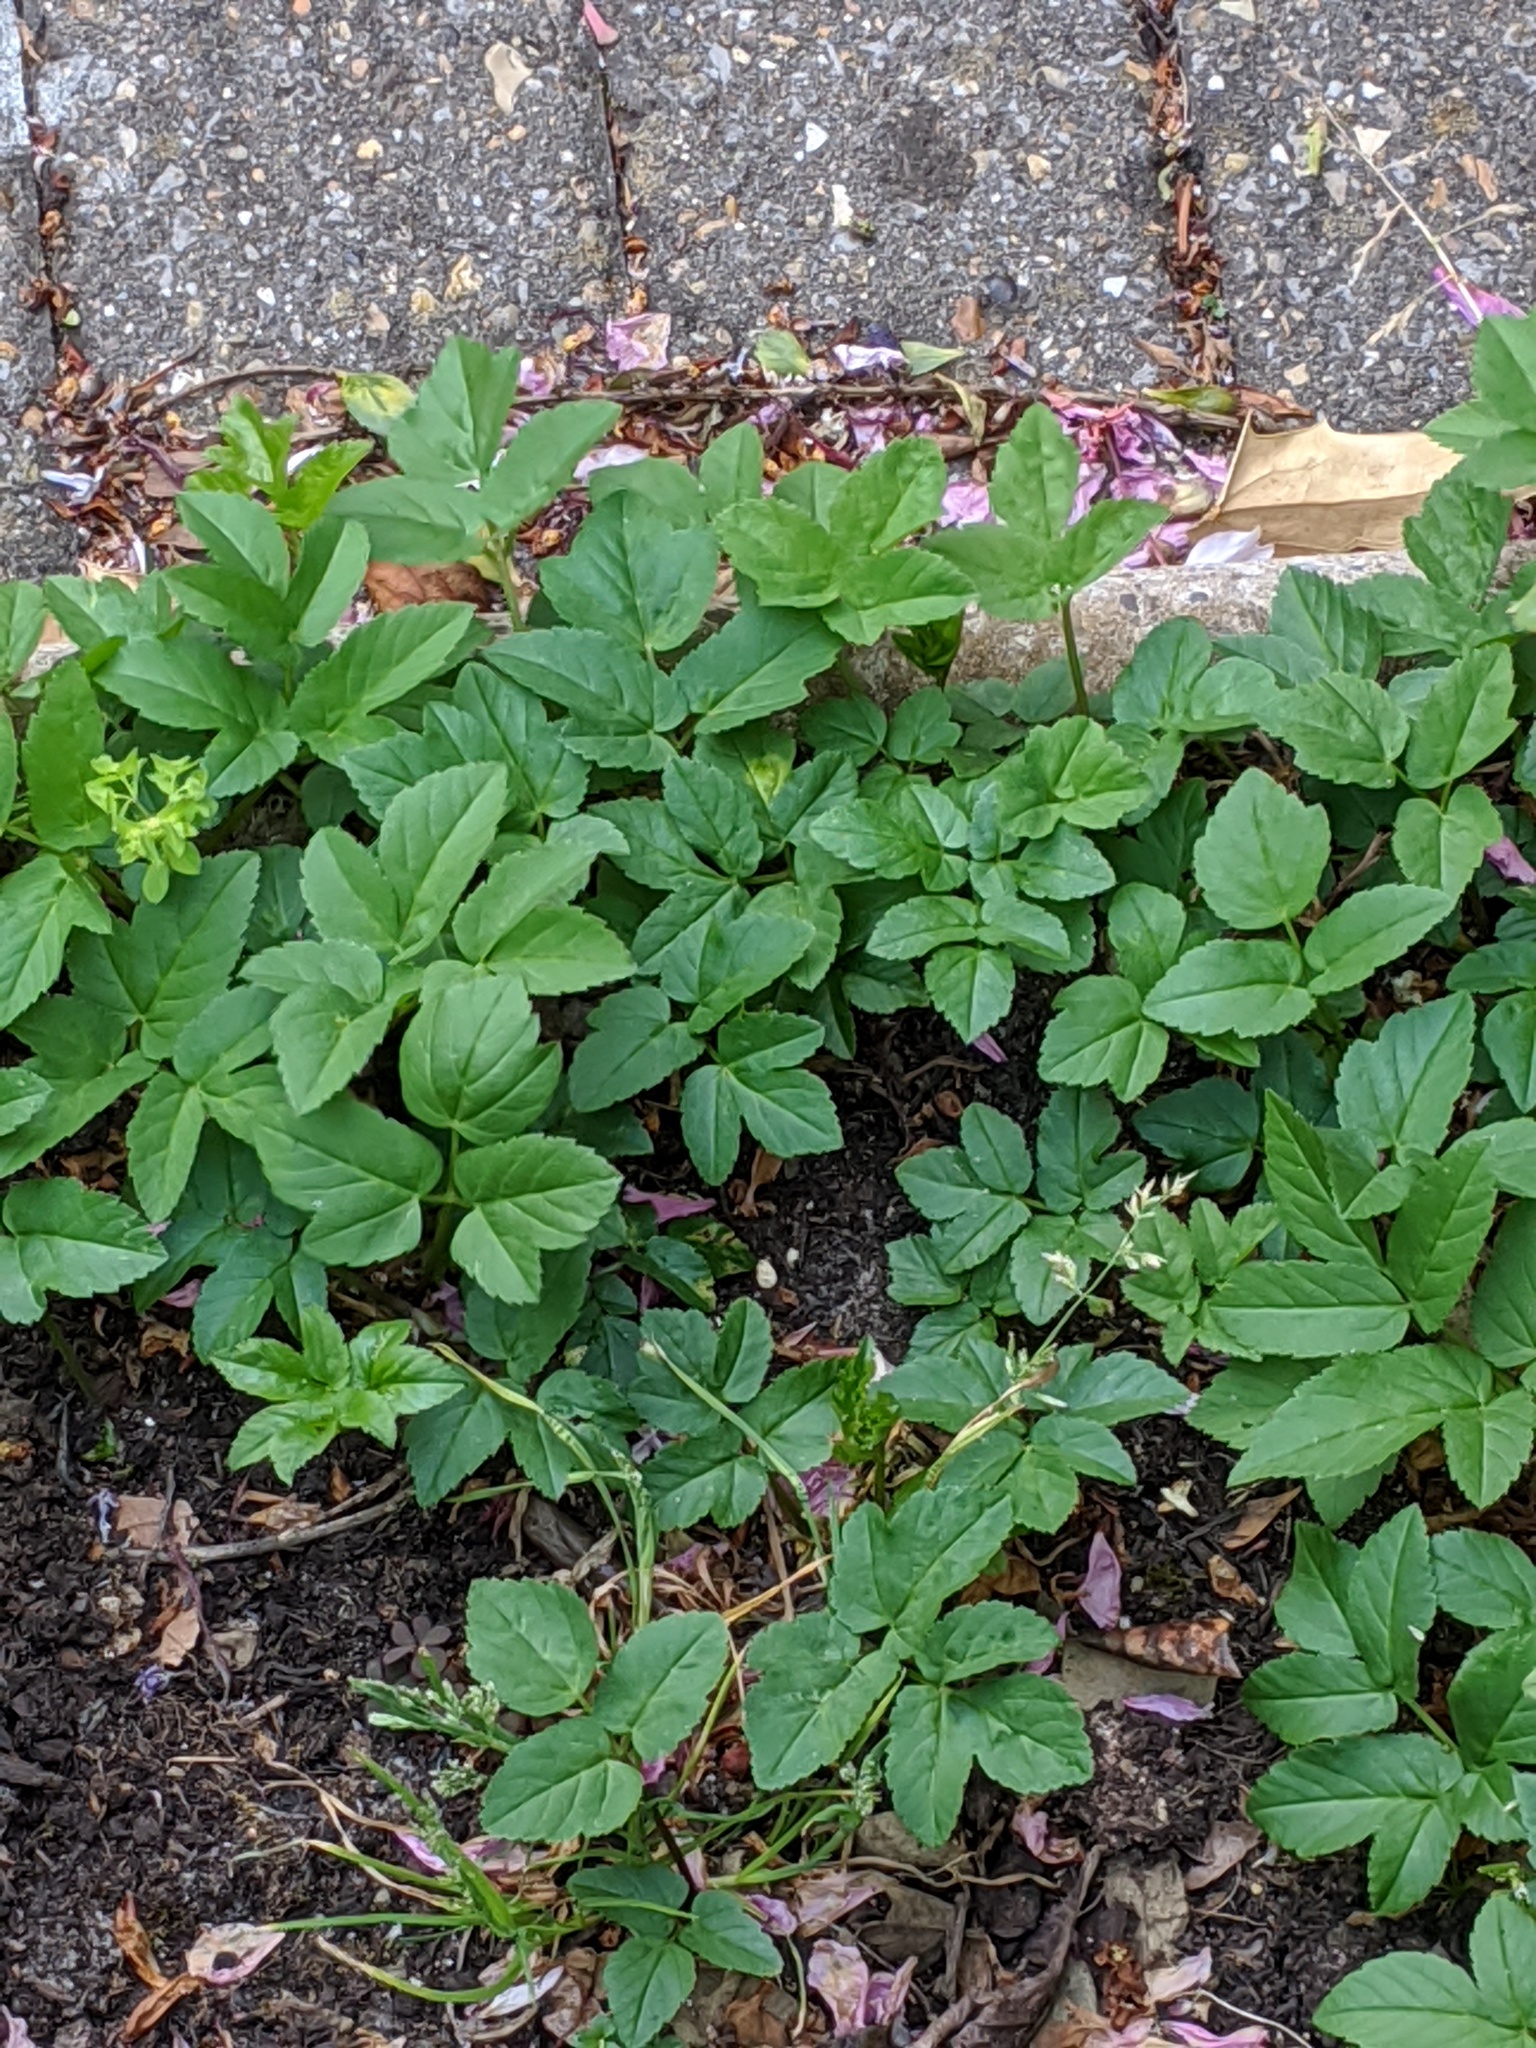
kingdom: Plantae
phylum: Tracheophyta
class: Magnoliopsida
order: Apiales
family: Apiaceae
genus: Aegopodium
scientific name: Aegopodium podagraria
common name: Ground-elder
